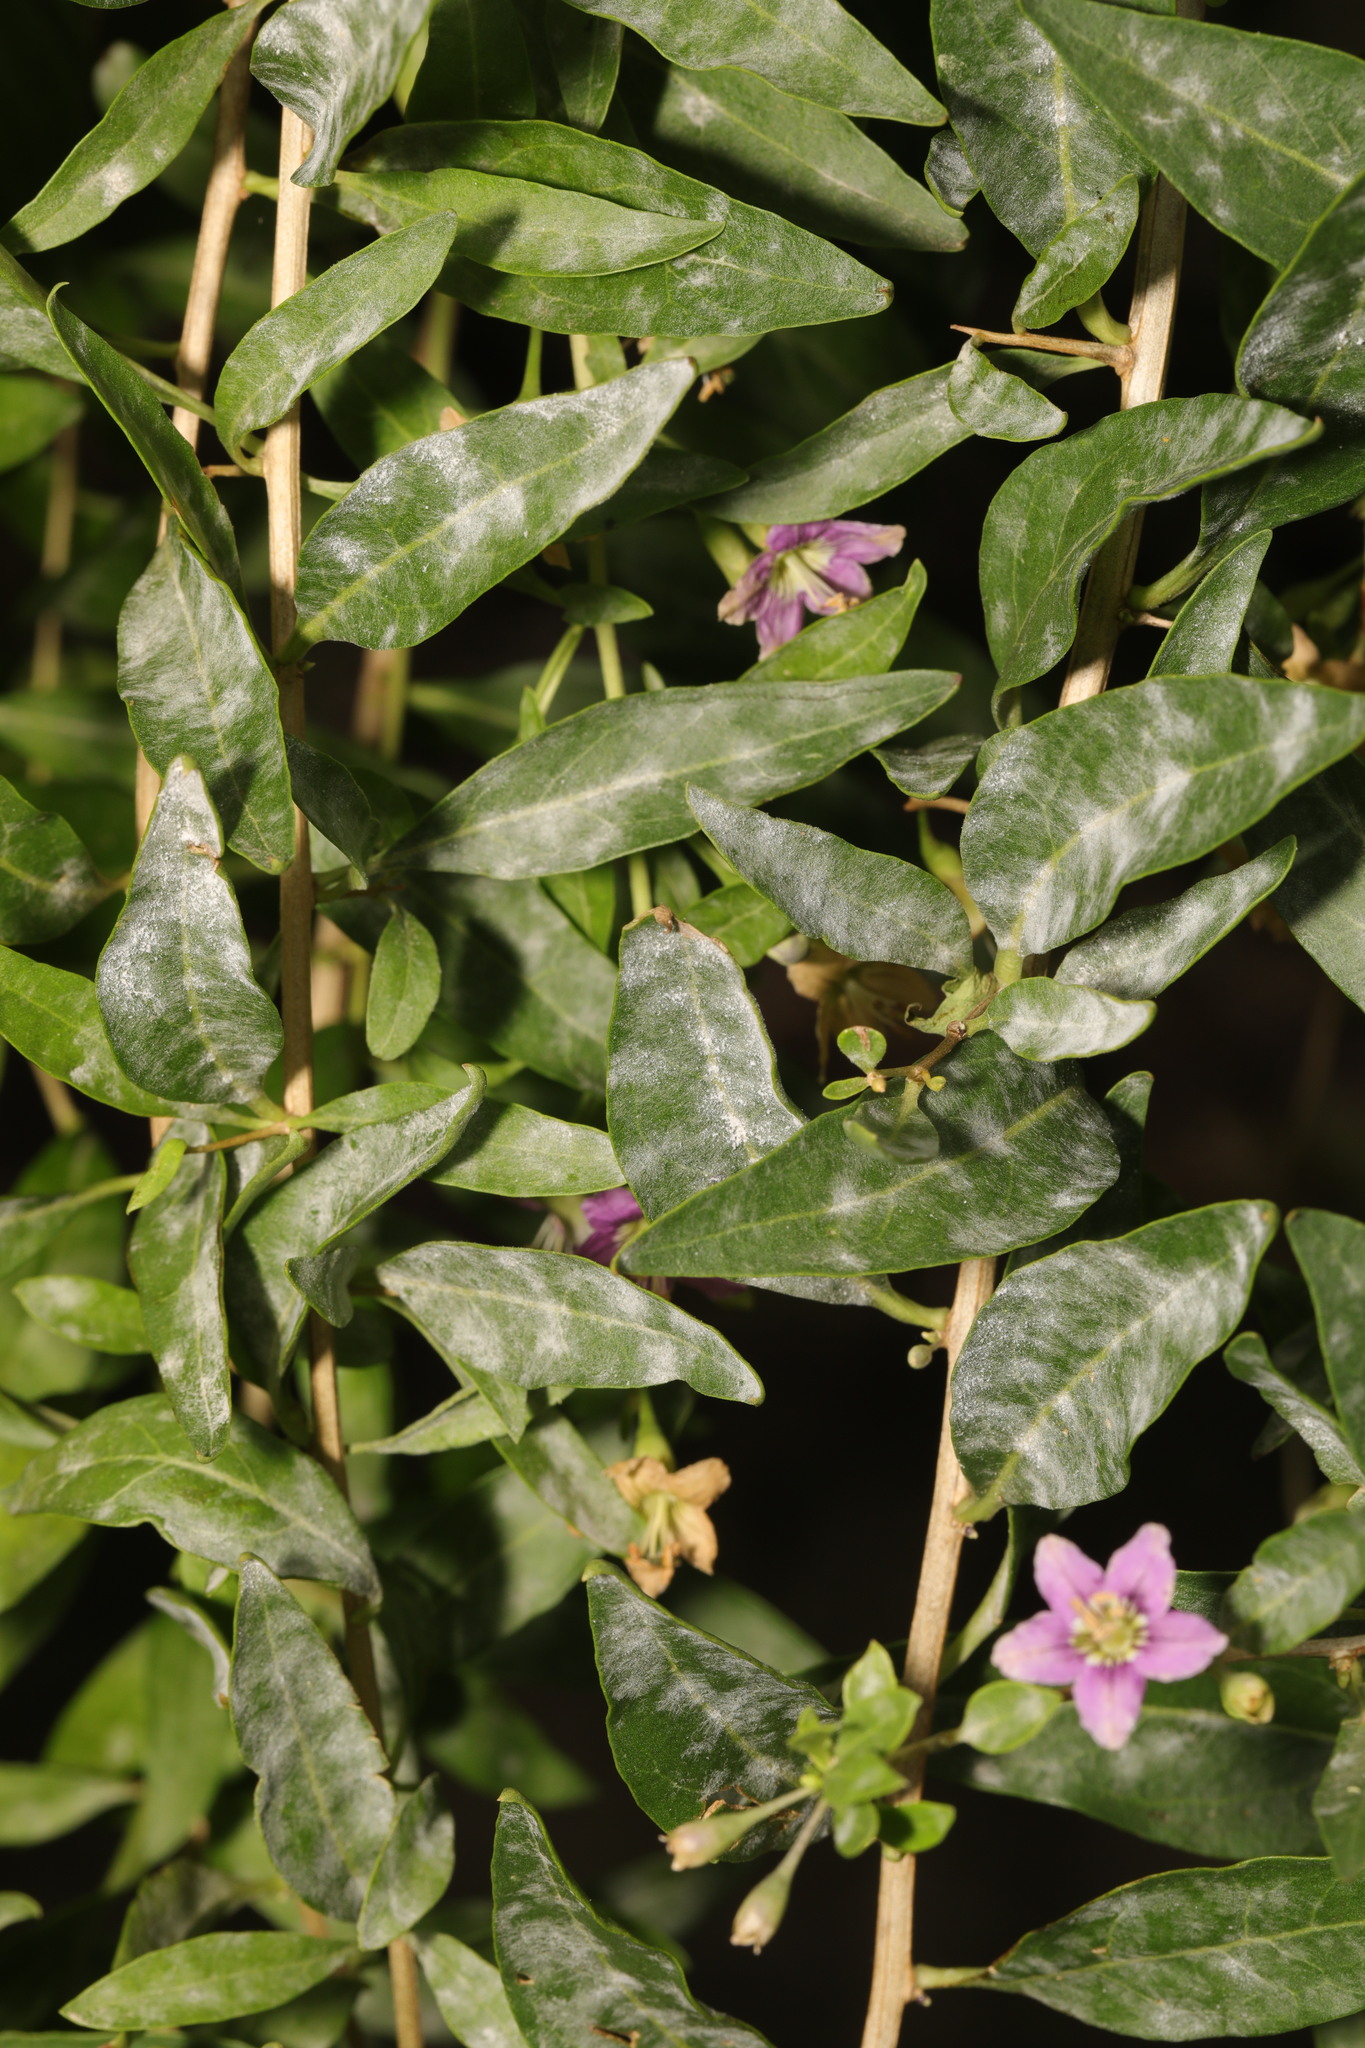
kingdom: Fungi
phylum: Ascomycota
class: Leotiomycetes
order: Helotiales
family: Erysiphaceae
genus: Erysiphe
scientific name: Erysiphe mougeotii
